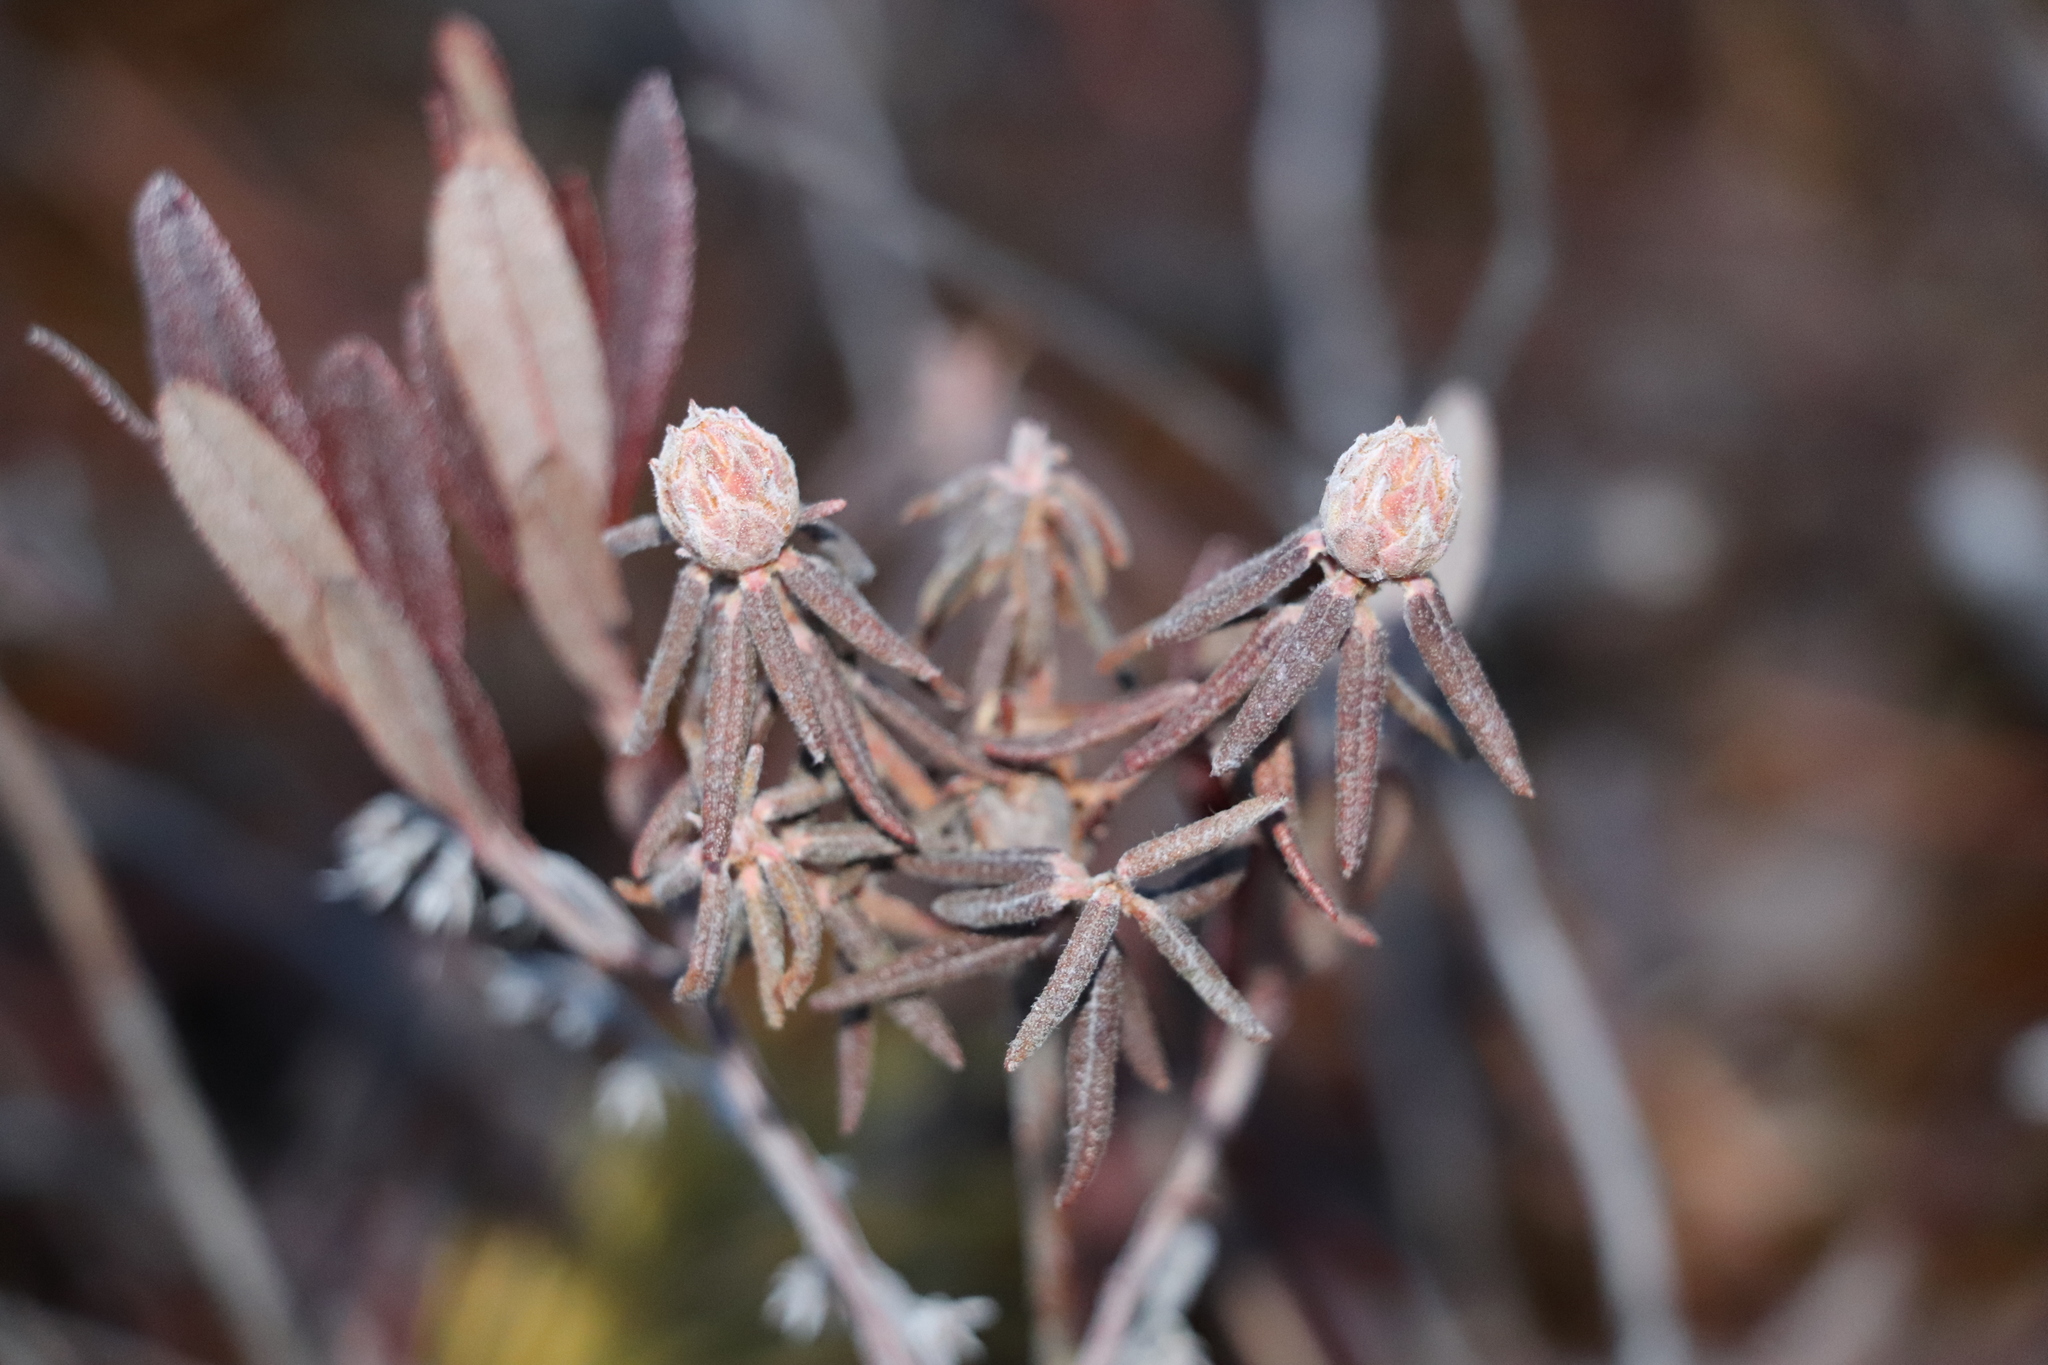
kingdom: Plantae
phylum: Tracheophyta
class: Magnoliopsida
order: Ericales
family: Ericaceae
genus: Rhododendron
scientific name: Rhododendron tomentosum
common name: Marsh labrador tea
